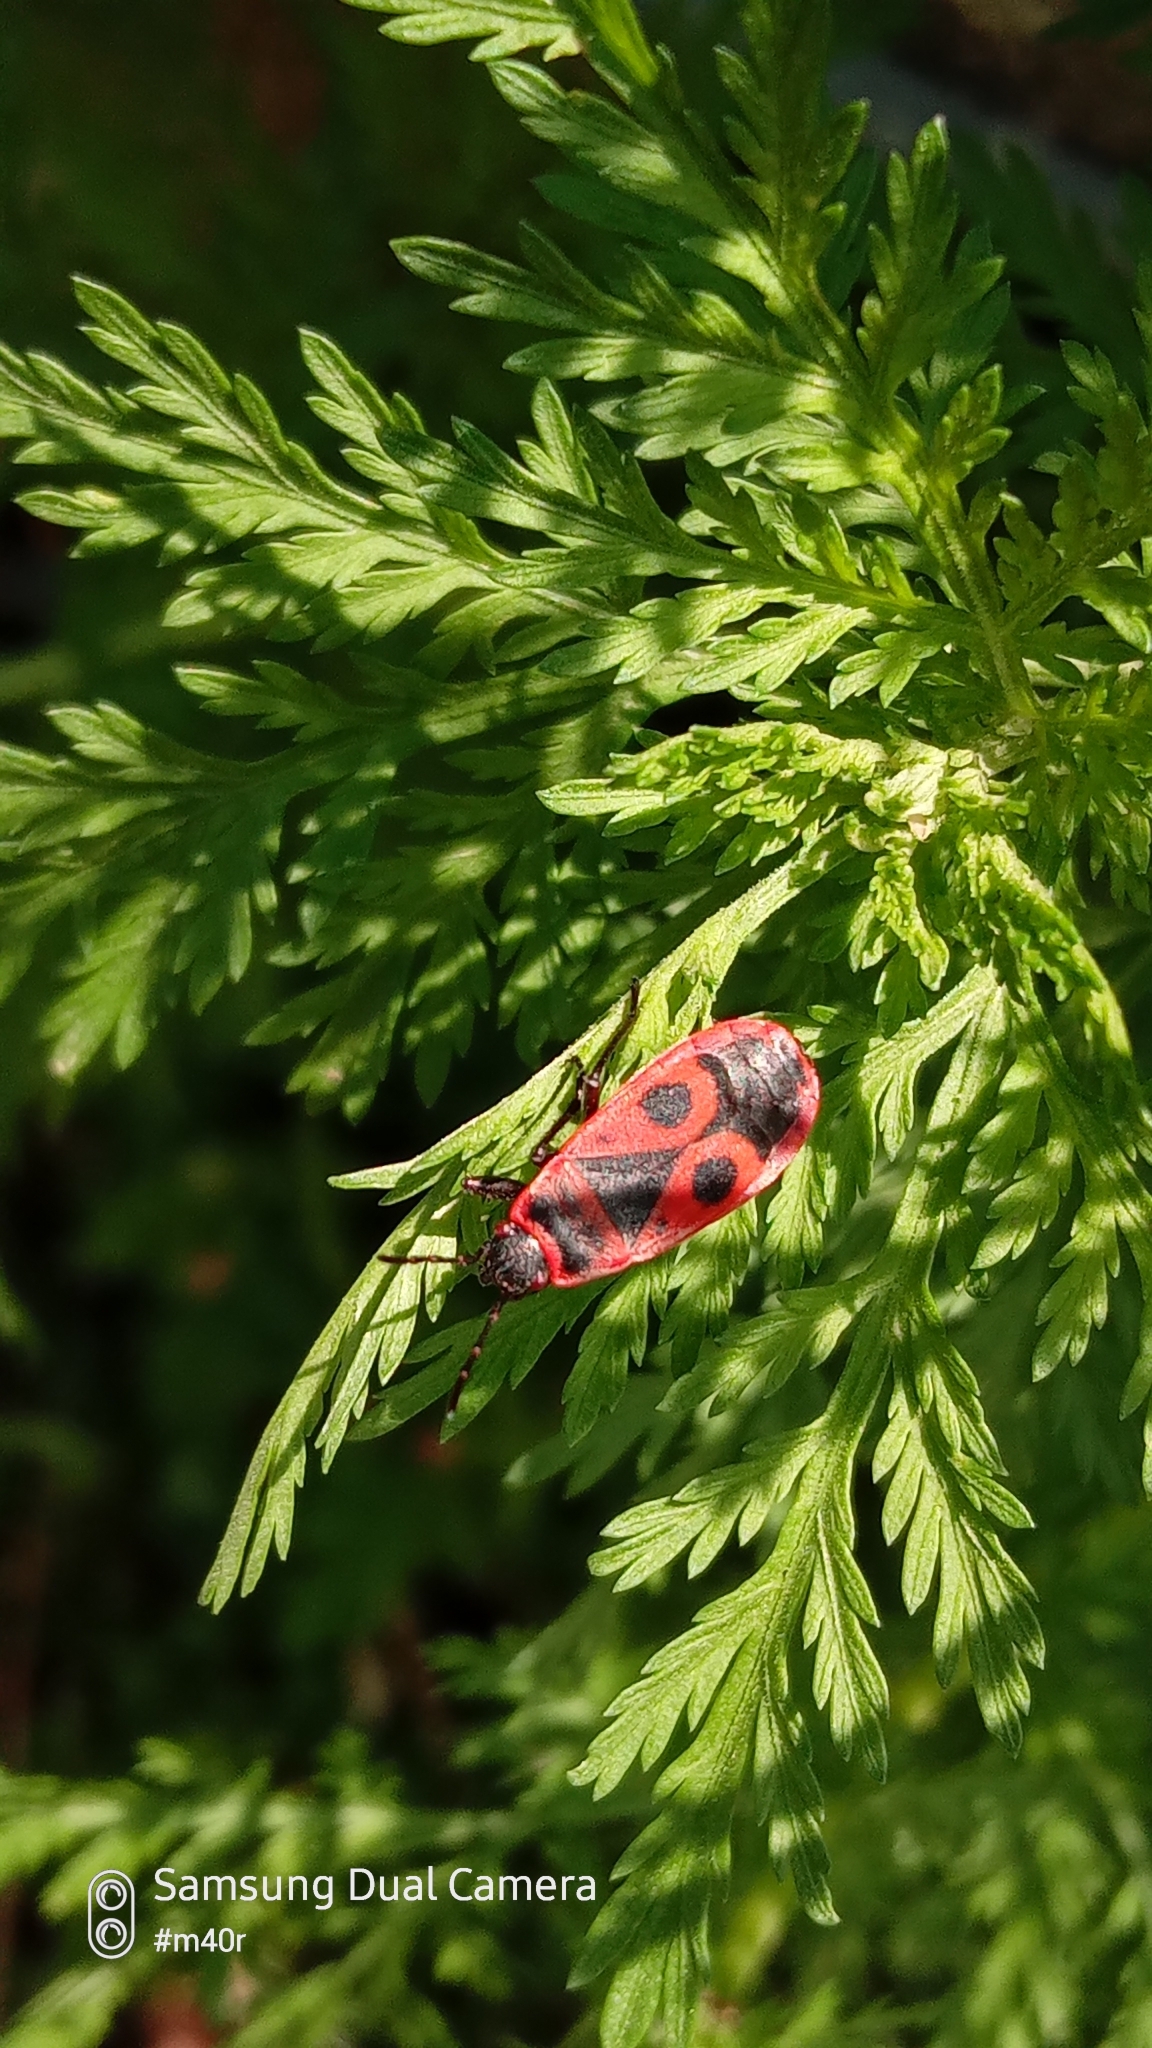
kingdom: Animalia
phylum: Arthropoda
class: Insecta
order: Hemiptera
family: Pyrrhocoridae
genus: Pyrrhocoris
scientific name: Pyrrhocoris apterus
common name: Firebug
